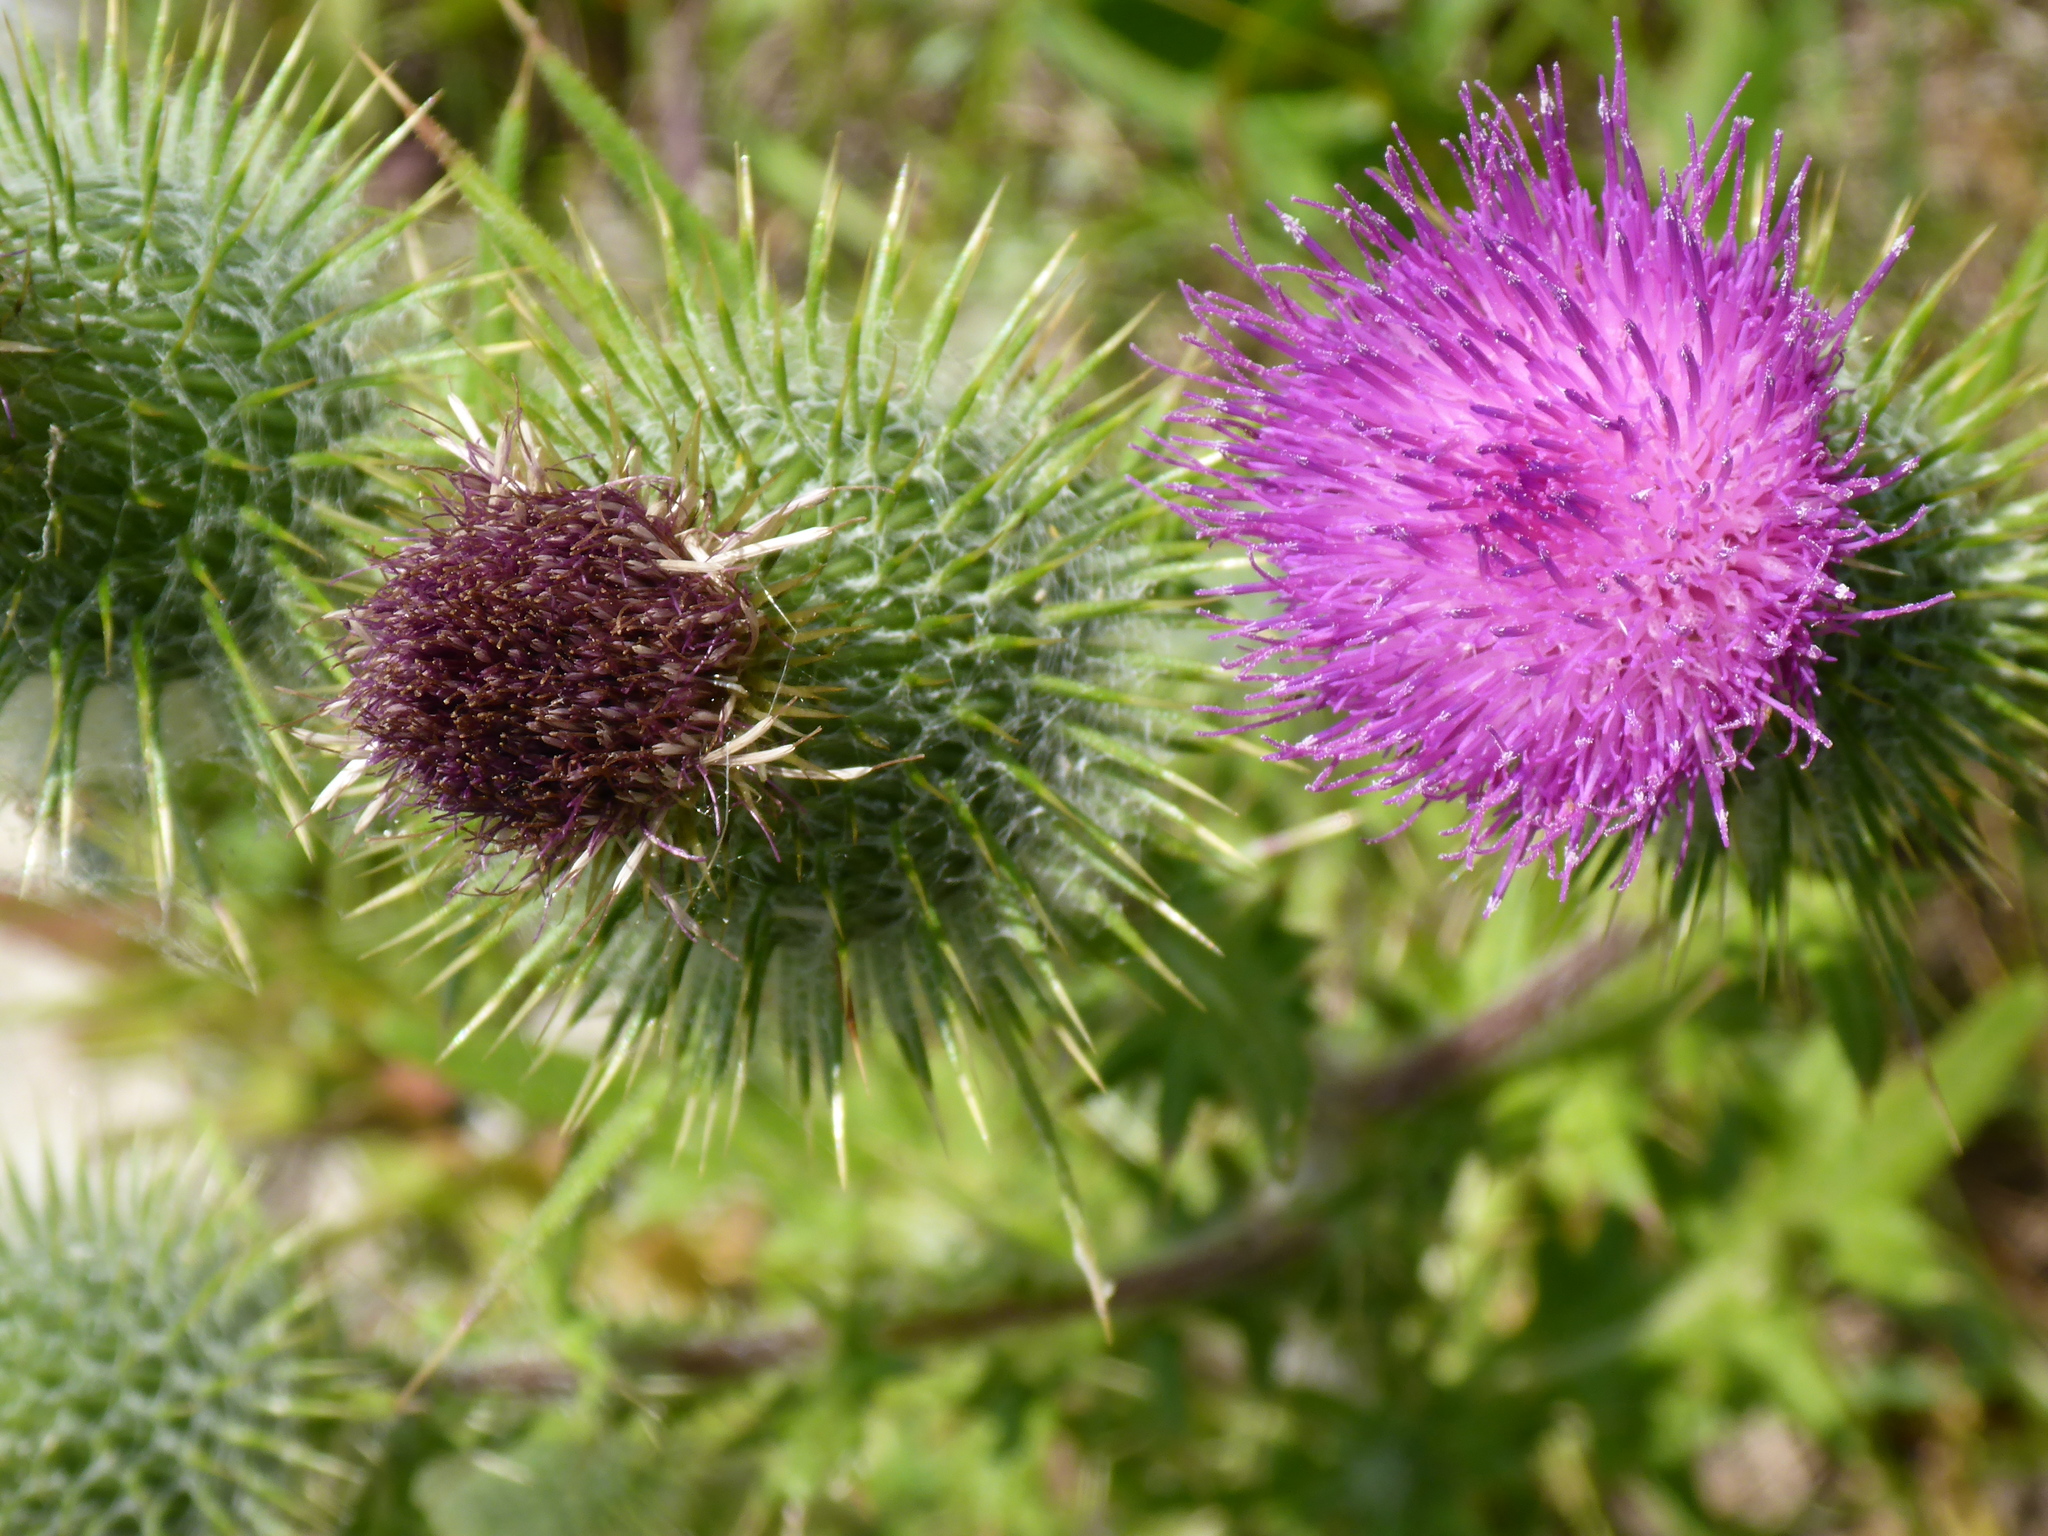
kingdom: Plantae
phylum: Tracheophyta
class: Magnoliopsida
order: Asterales
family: Asteraceae
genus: Cirsium
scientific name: Cirsium vulgare
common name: Bull thistle
